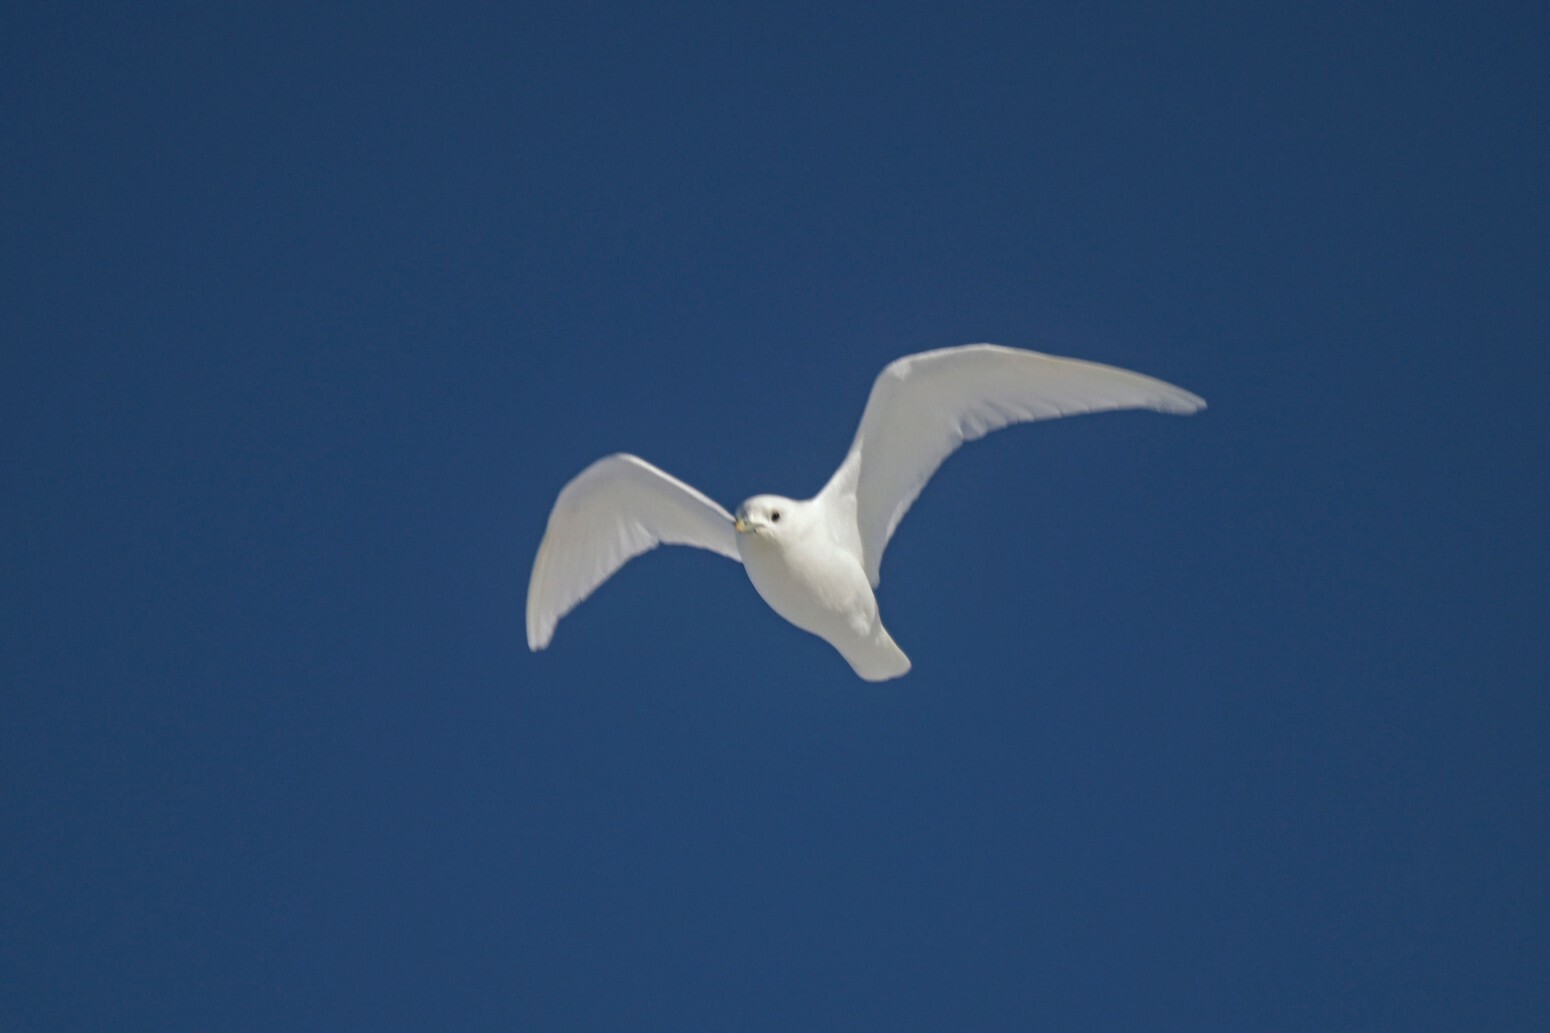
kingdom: Animalia
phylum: Chordata
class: Aves
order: Charadriiformes
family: Laridae
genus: Pagophila
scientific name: Pagophila eburnea
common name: Ivory gull
